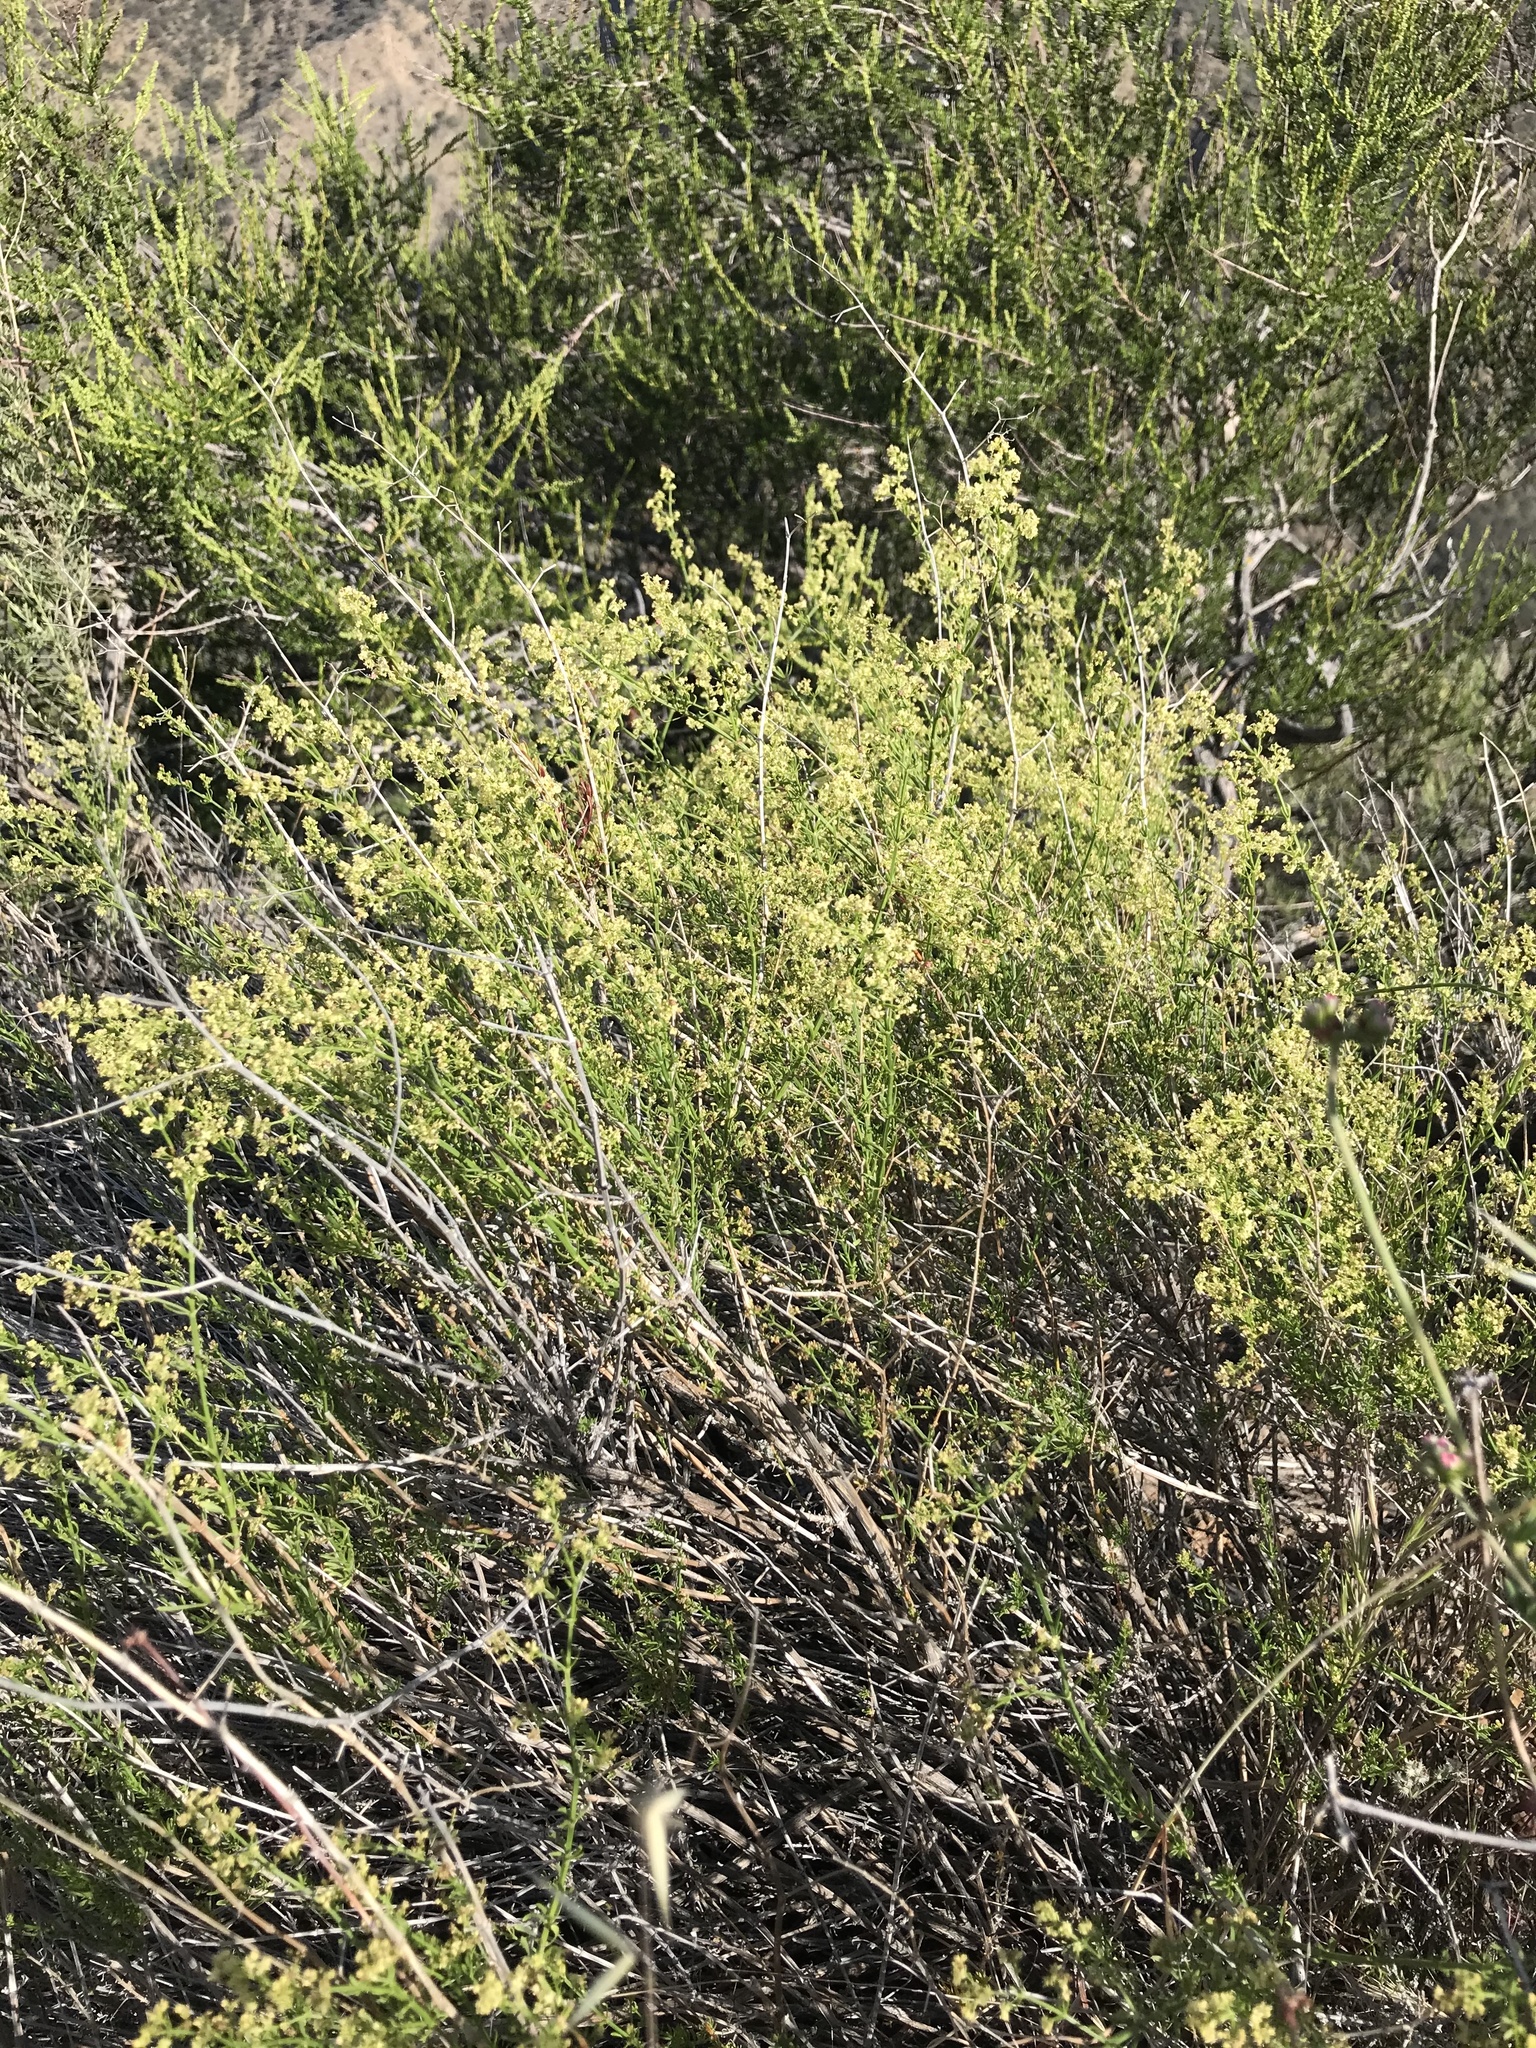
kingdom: Plantae
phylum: Tracheophyta
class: Magnoliopsida
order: Gentianales
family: Rubiaceae
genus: Galium
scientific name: Galium angustifolium
